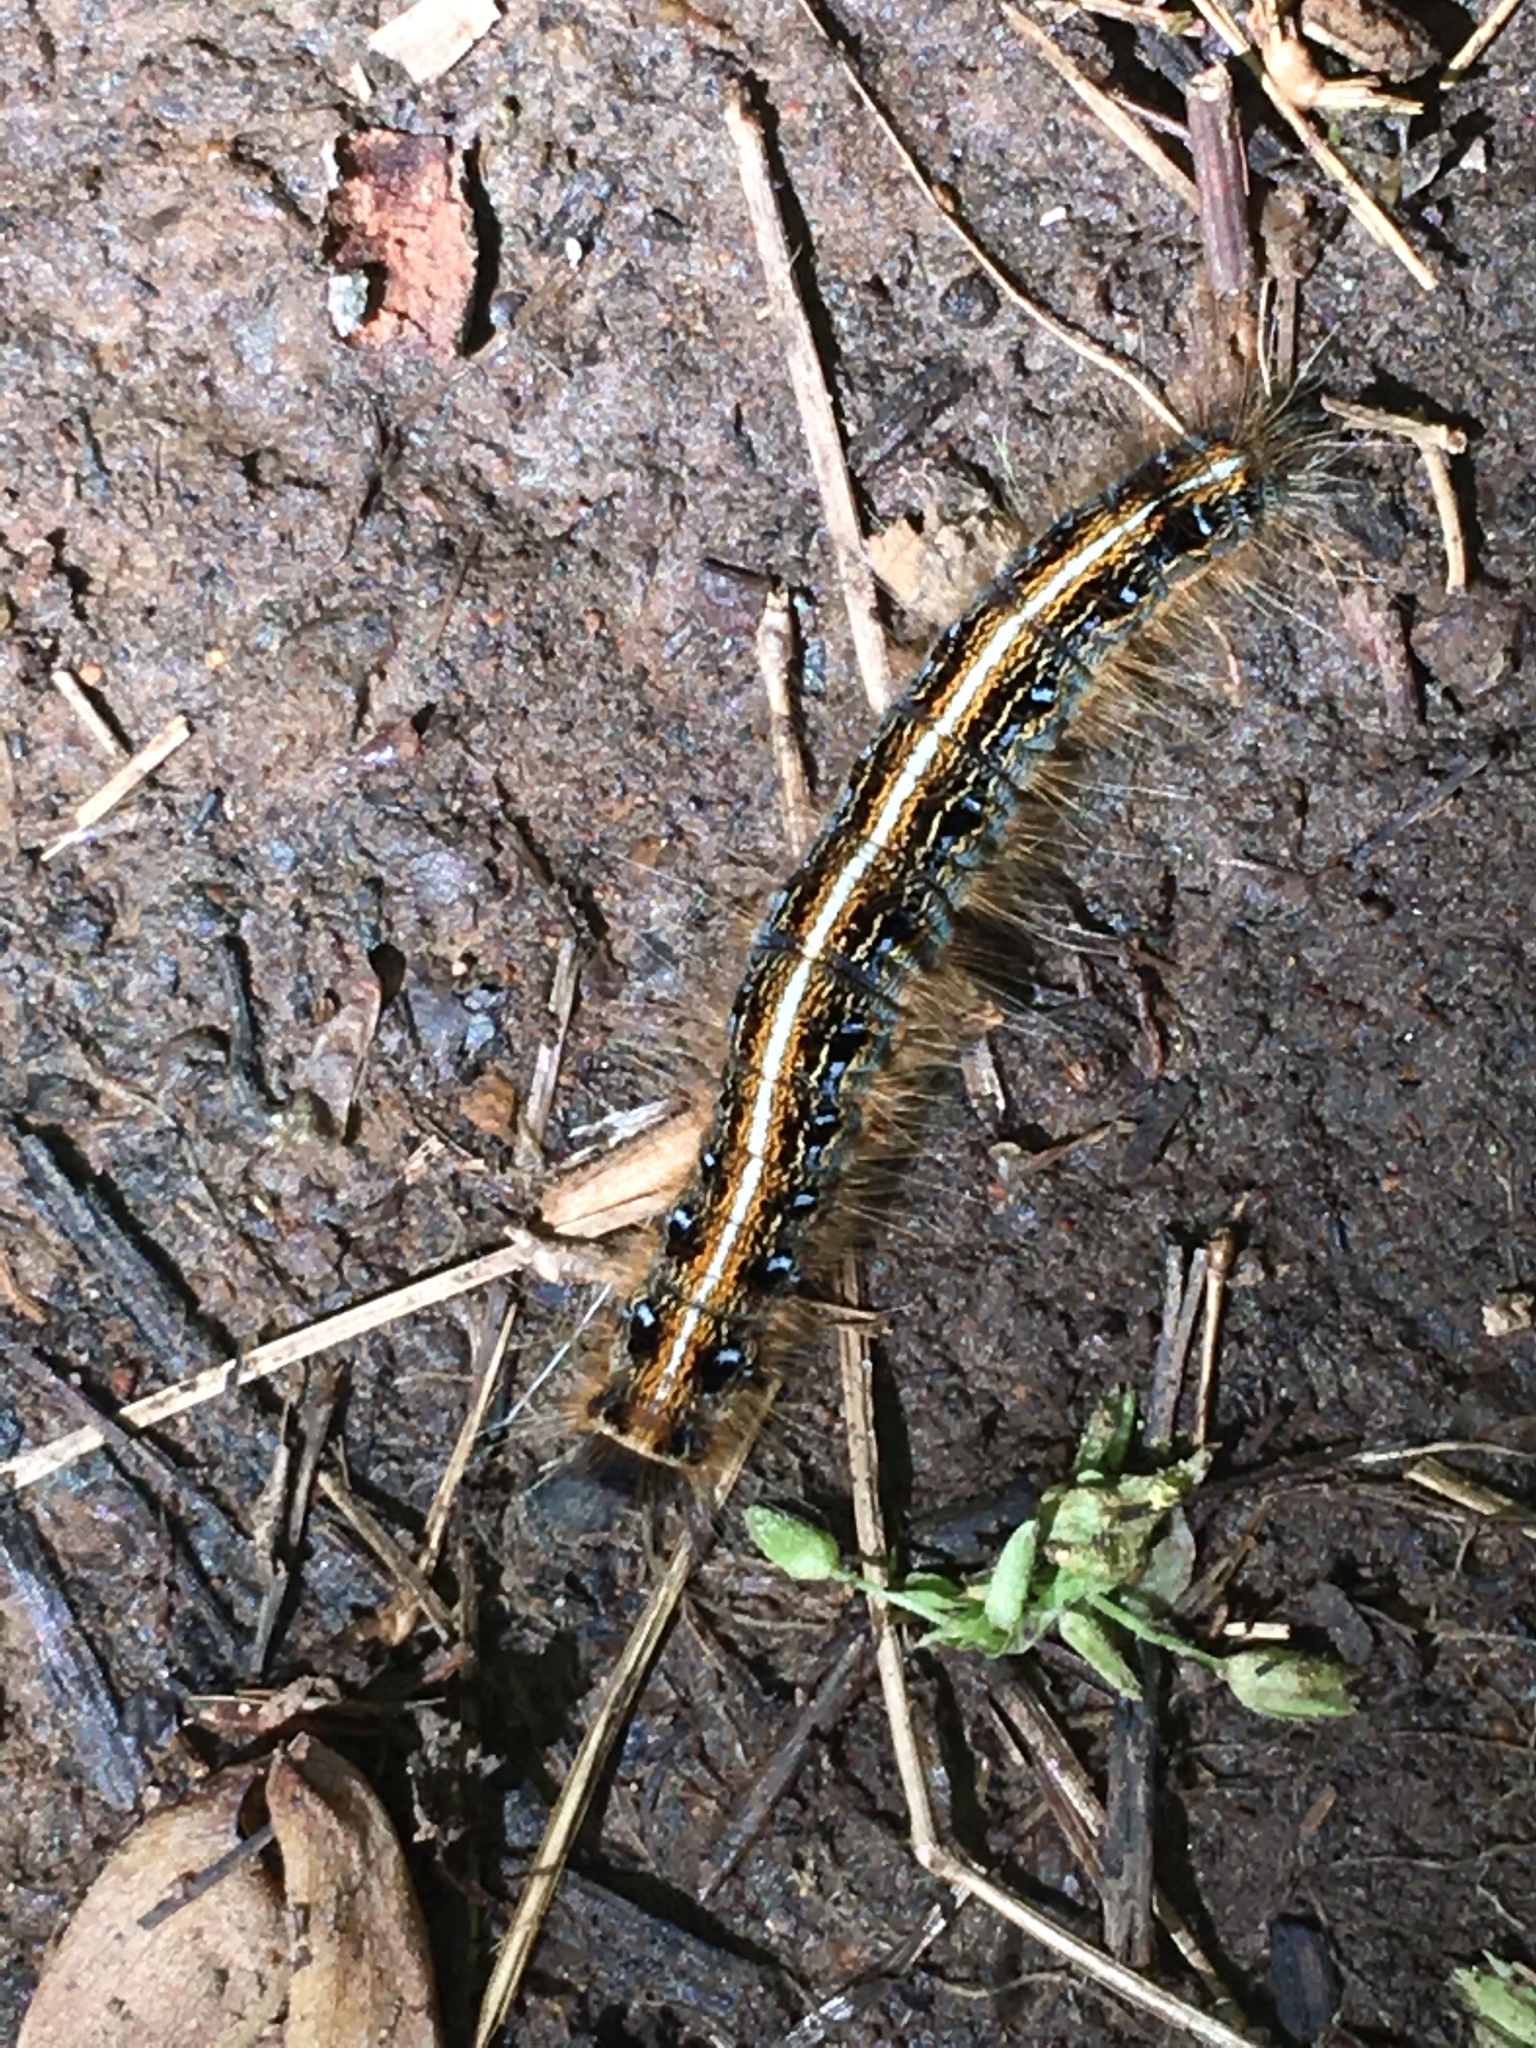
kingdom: Animalia
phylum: Arthropoda
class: Insecta
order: Lepidoptera
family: Lasiocampidae
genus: Malacosoma
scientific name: Malacosoma americana
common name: Eastern tent caterpillar moth
